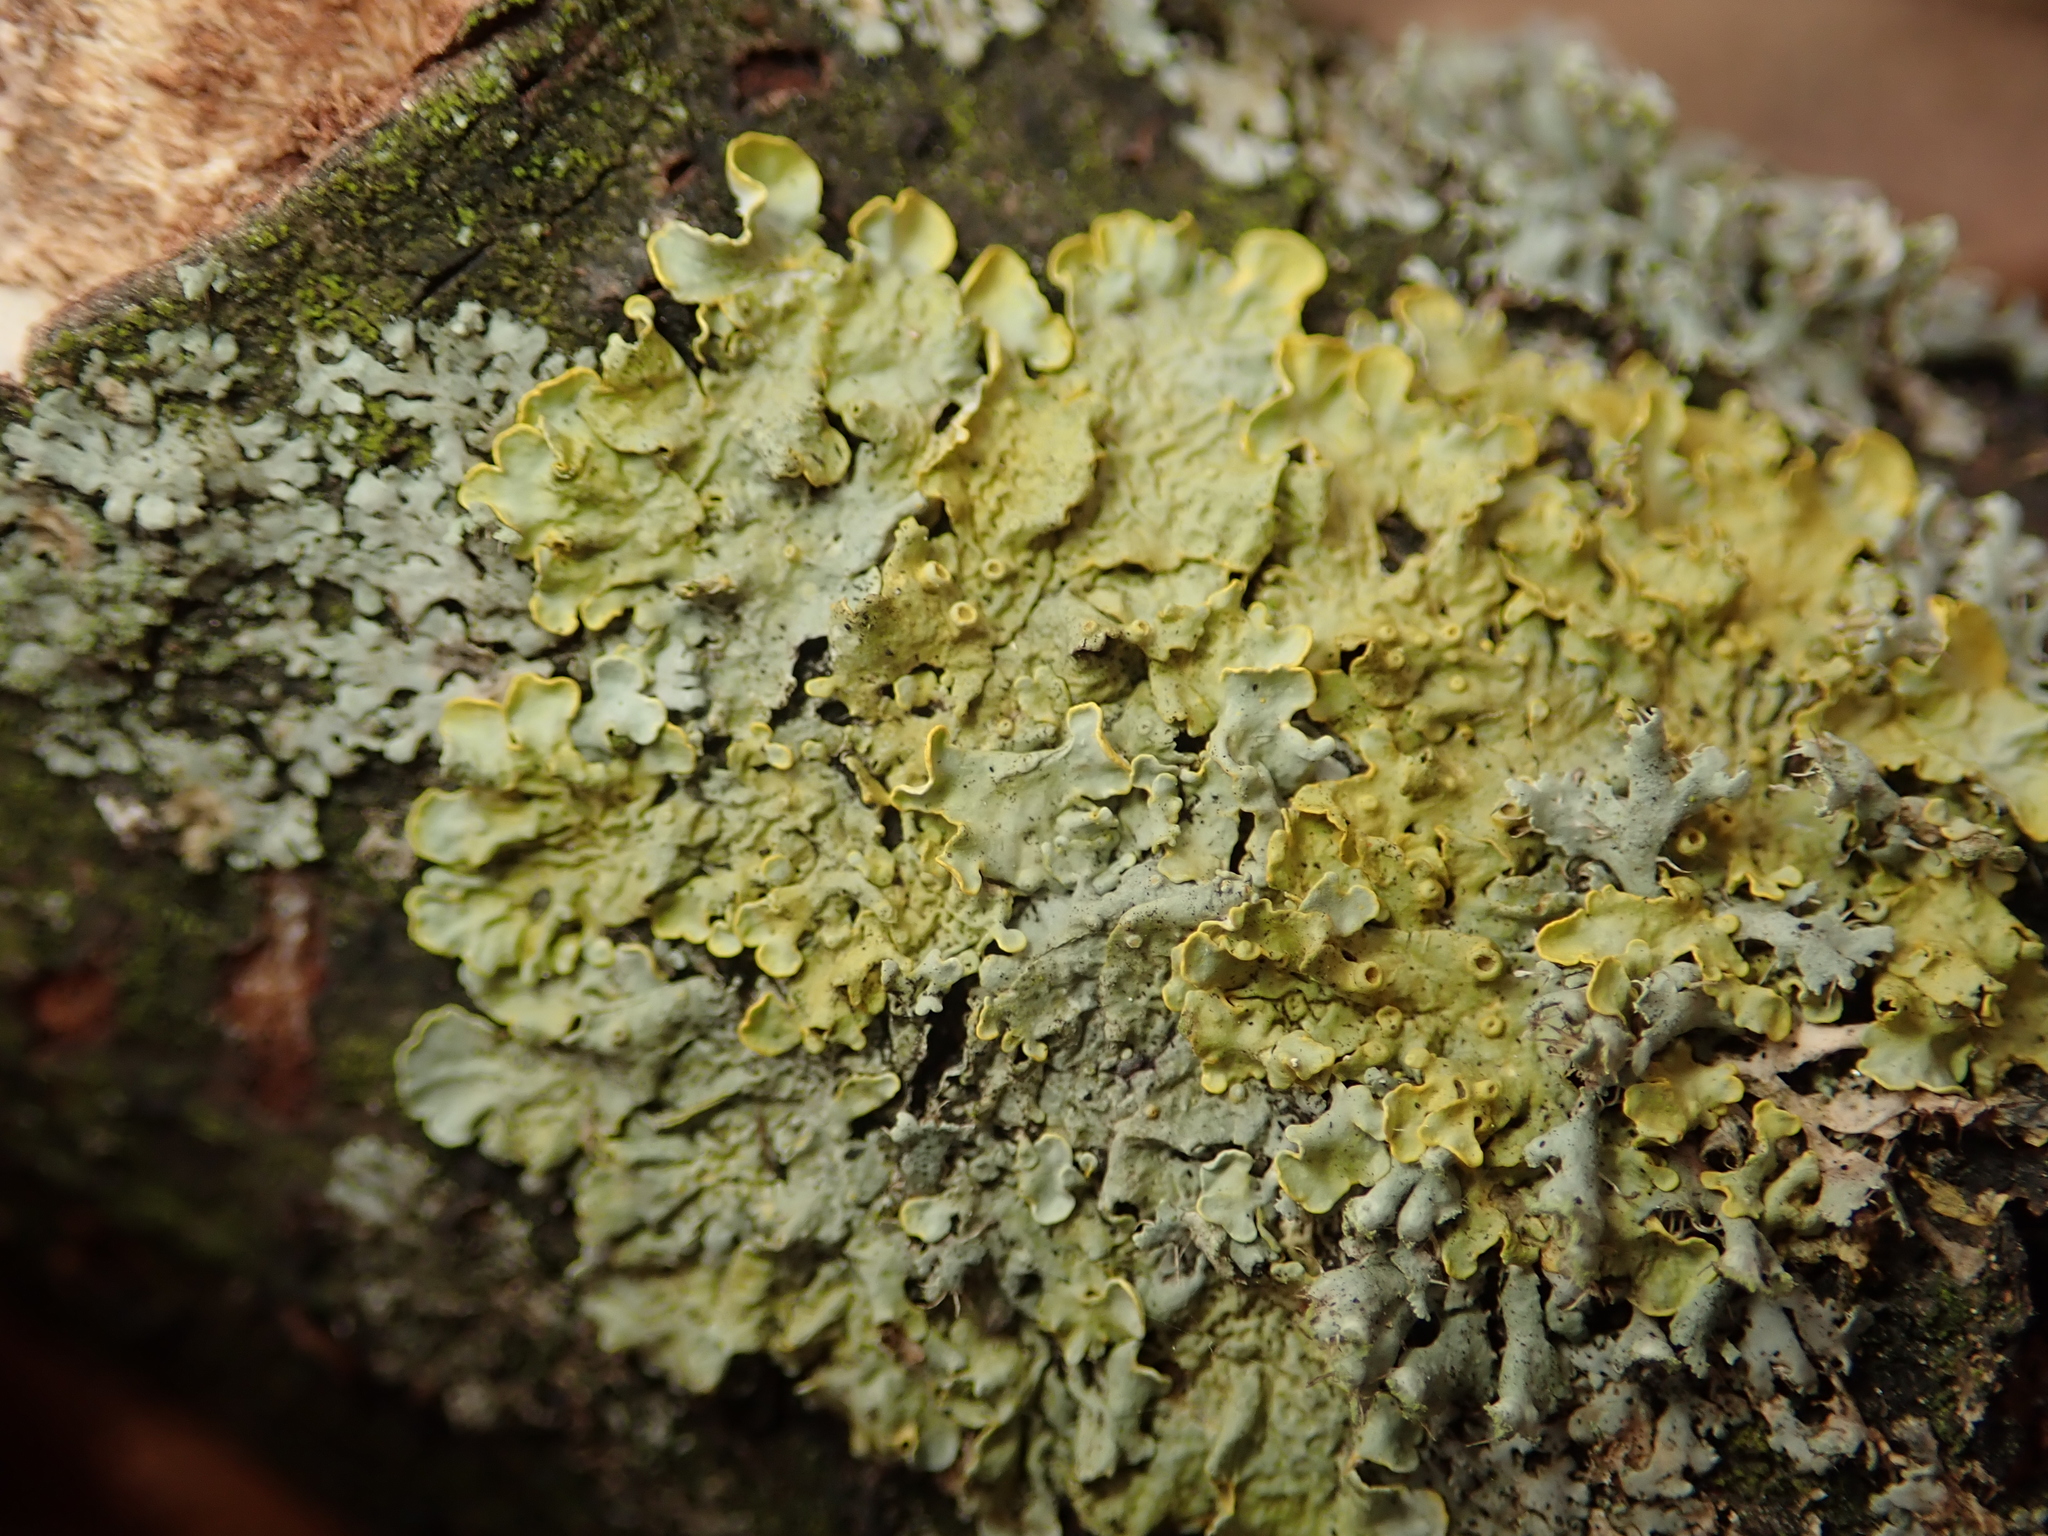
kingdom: Fungi
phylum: Ascomycota
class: Lecanoromycetes
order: Teloschistales
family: Teloschistaceae
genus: Xanthoria
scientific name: Xanthoria parietina
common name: Common orange lichen
